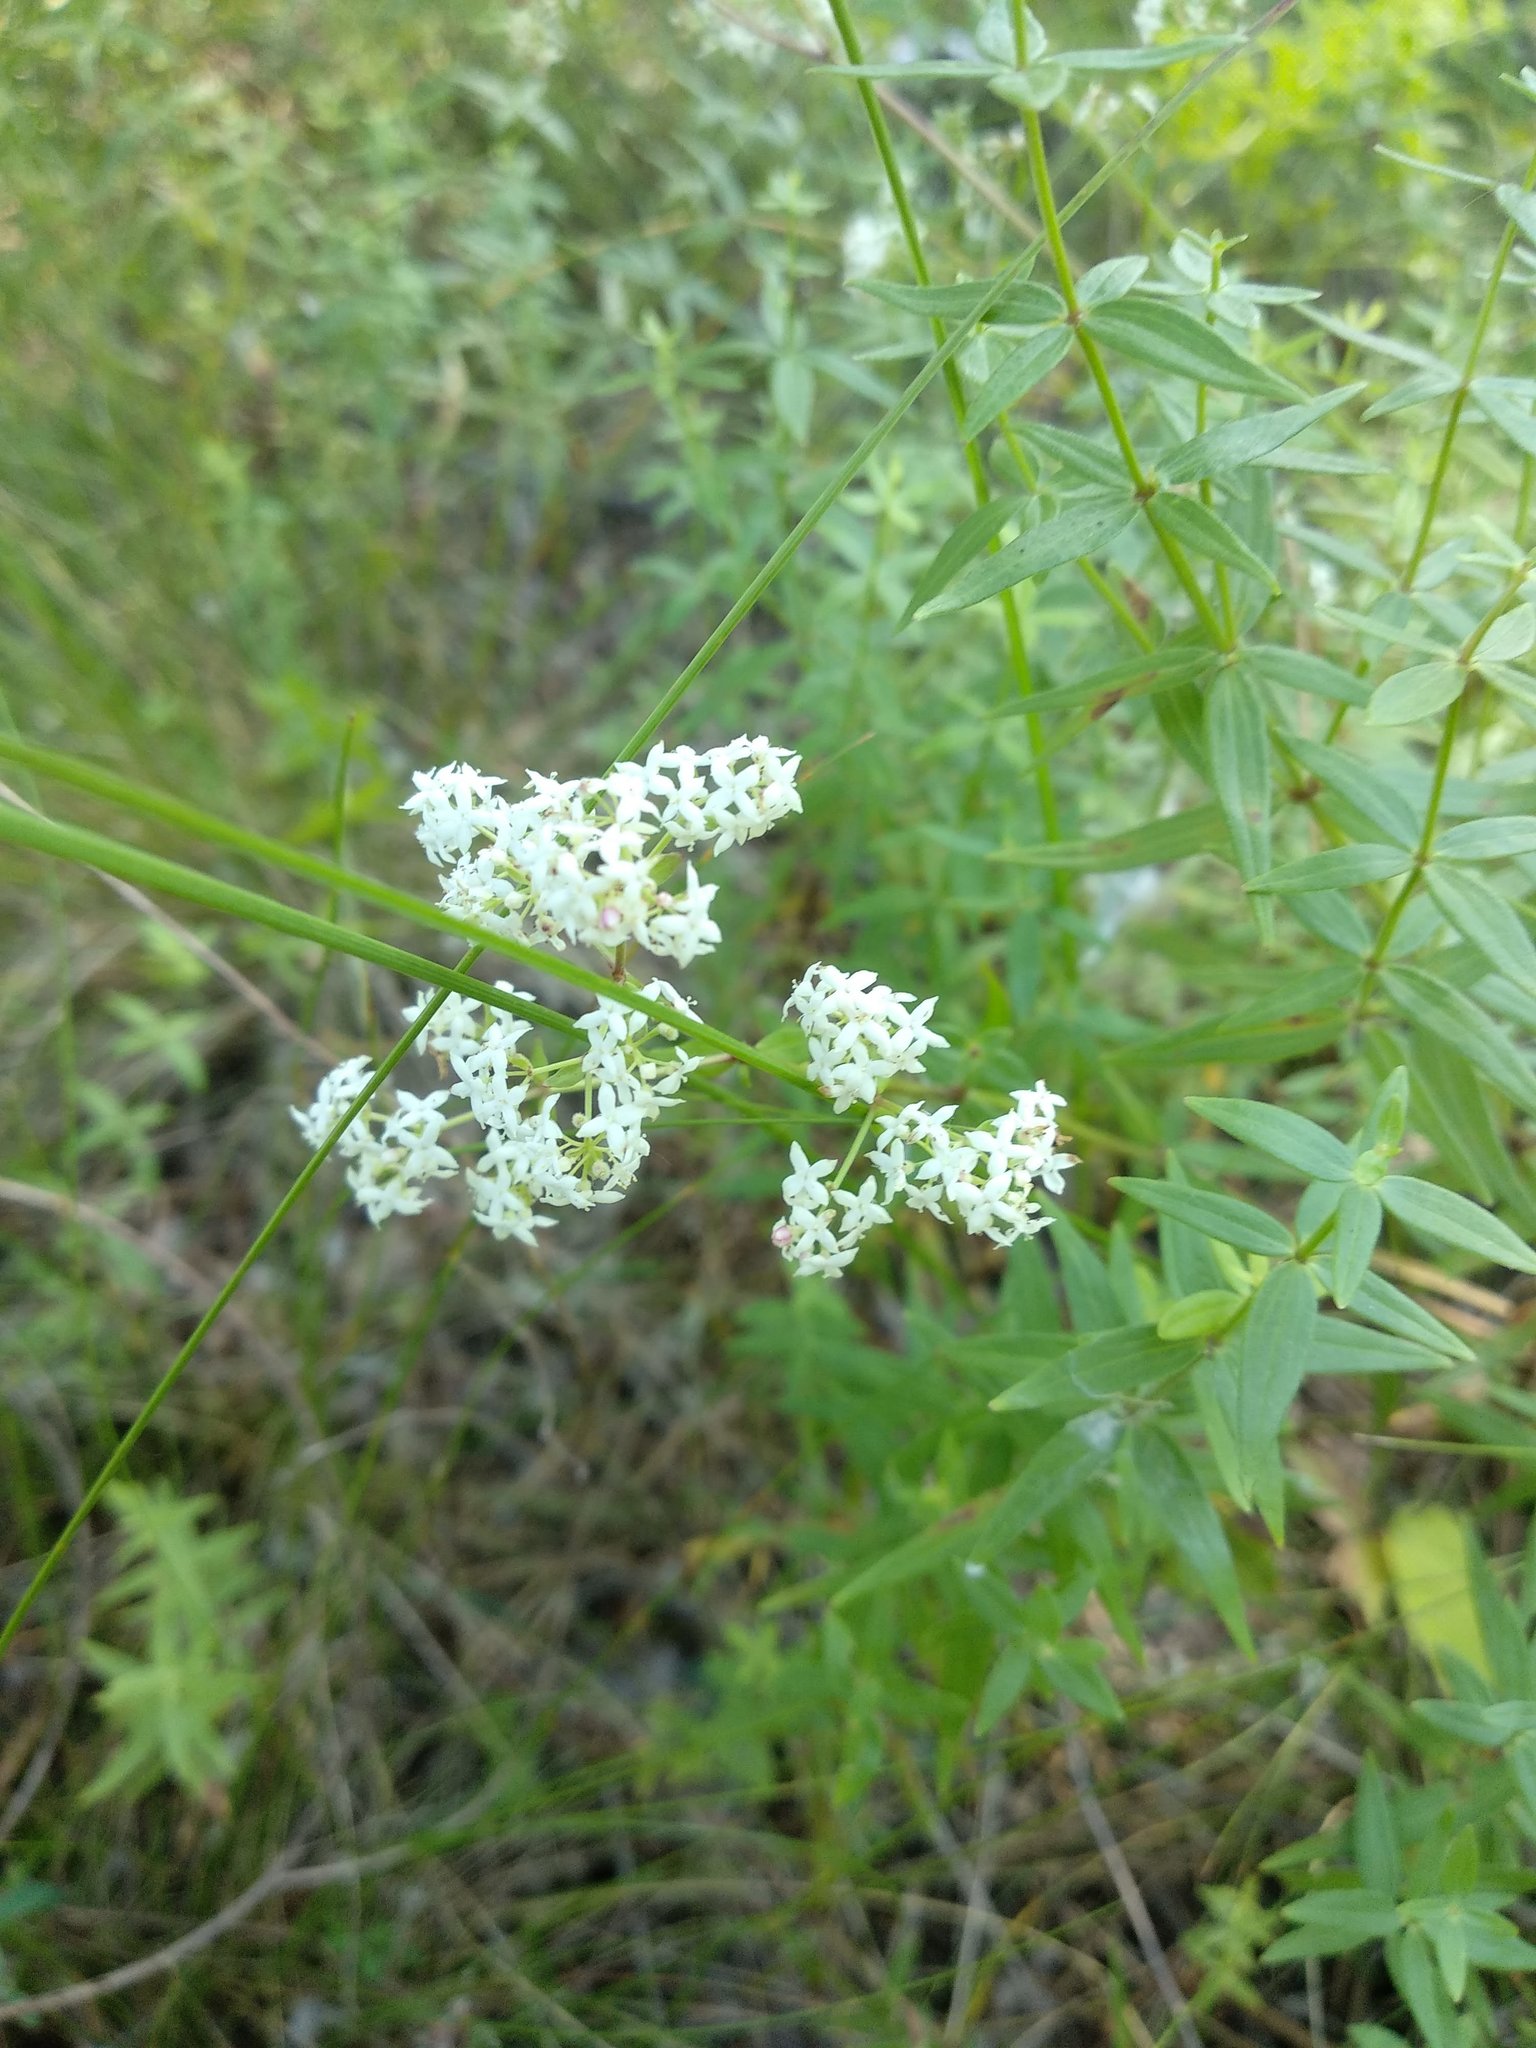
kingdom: Plantae
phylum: Tracheophyta
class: Magnoliopsida
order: Gentianales
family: Rubiaceae
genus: Galium
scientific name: Galium boreale
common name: Northern bedstraw
